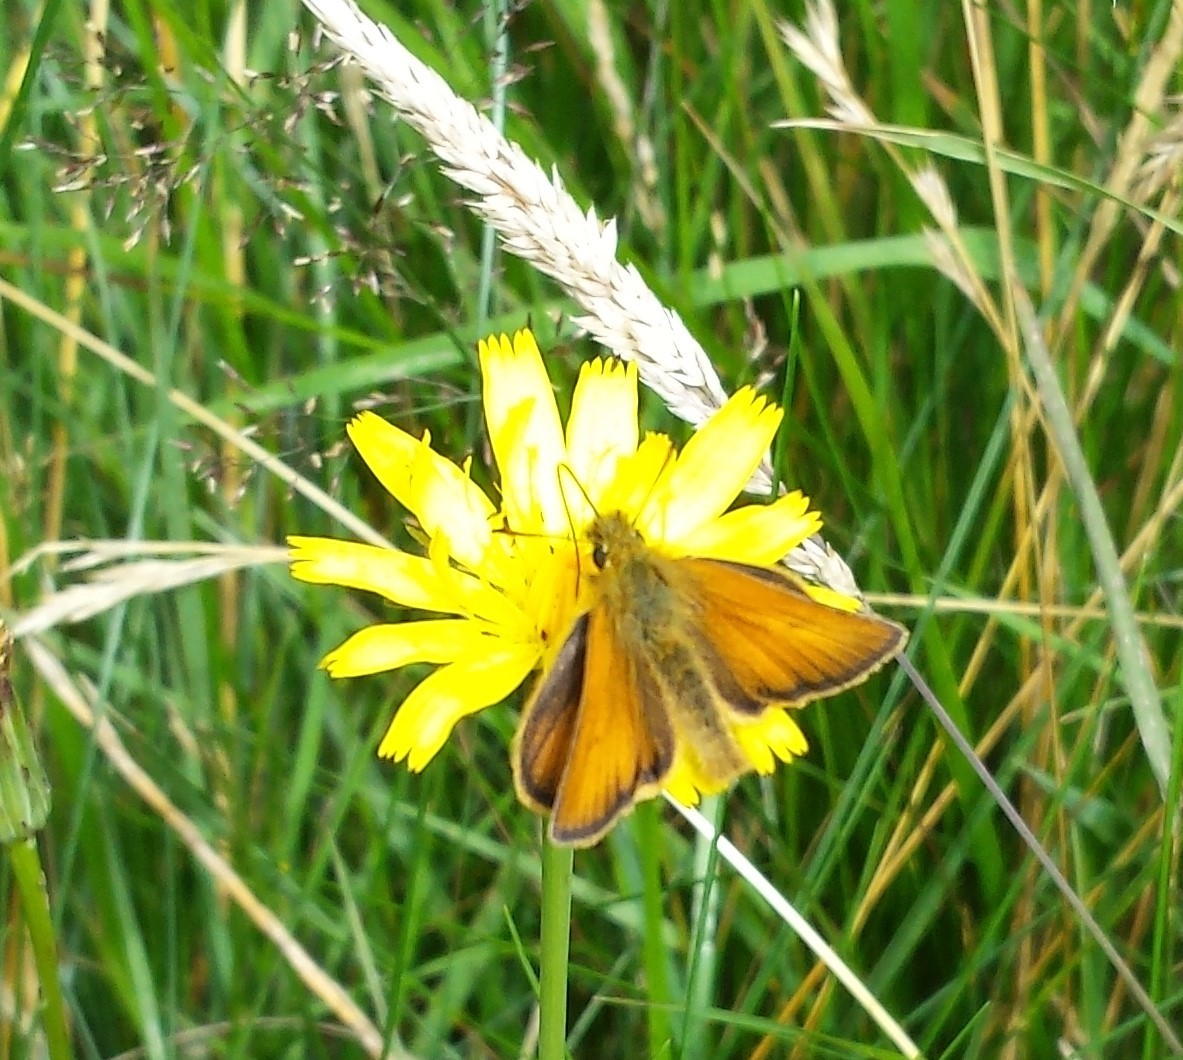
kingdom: Animalia
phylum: Arthropoda
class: Insecta
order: Lepidoptera
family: Hesperiidae
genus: Thymelicus
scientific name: Thymelicus lineola
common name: Essex skipper
